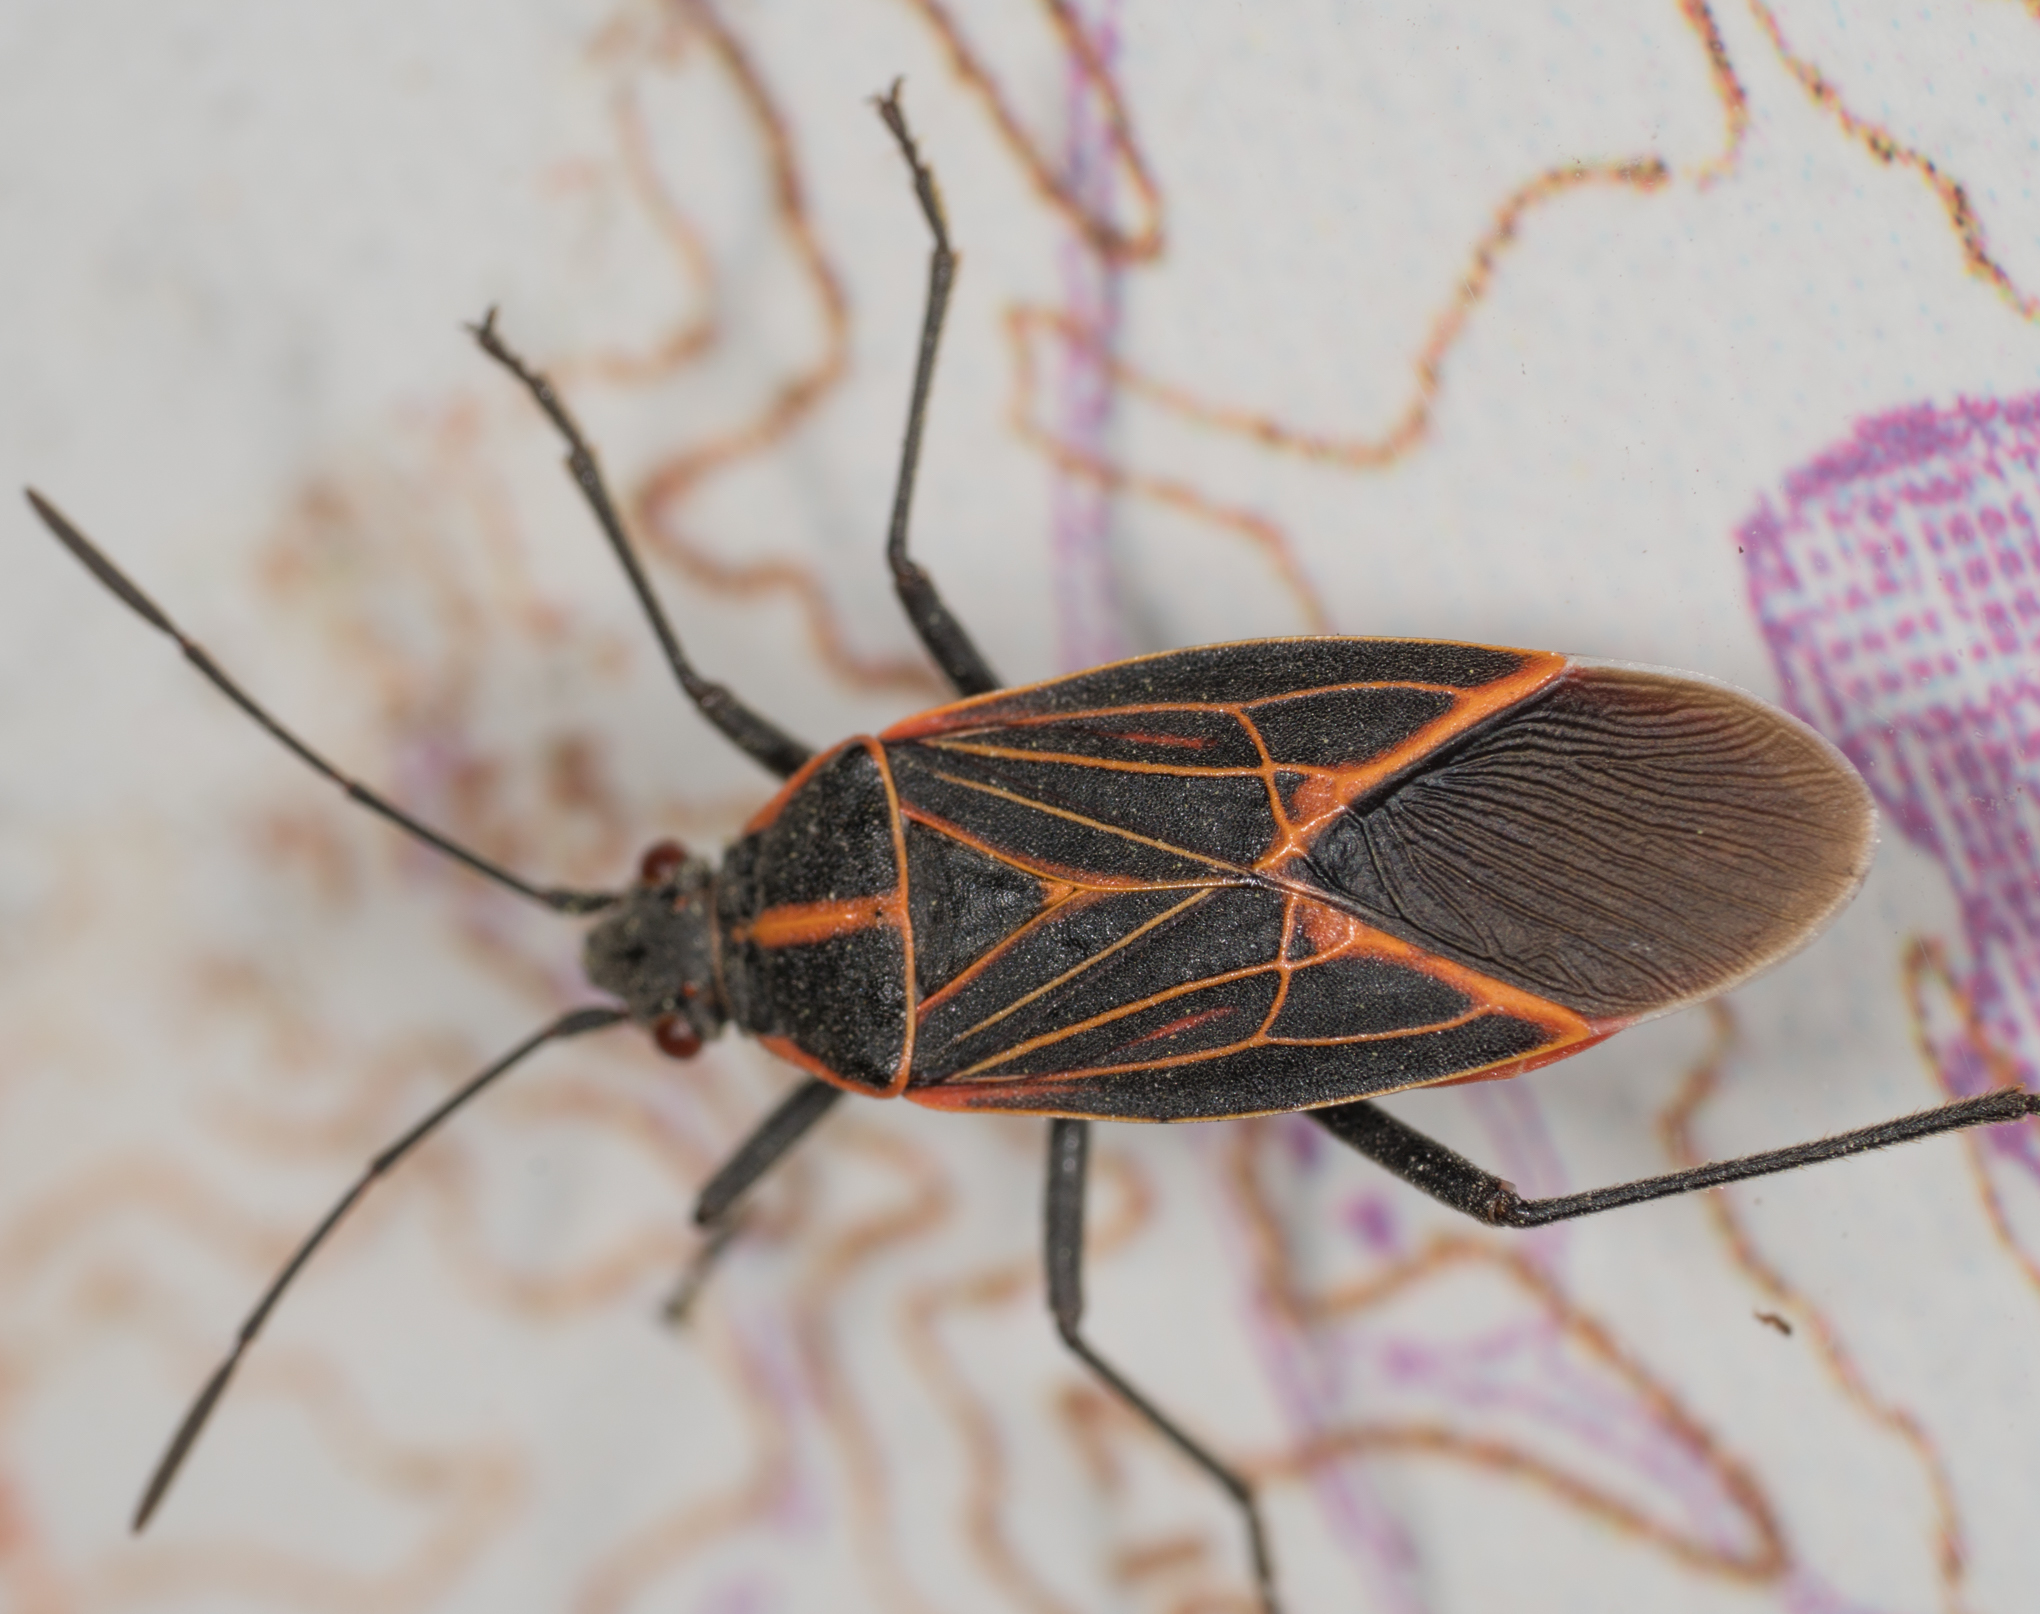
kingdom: Animalia
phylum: Arthropoda
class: Insecta
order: Hemiptera
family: Rhopalidae
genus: Boisea
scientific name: Boisea rubrolineata
